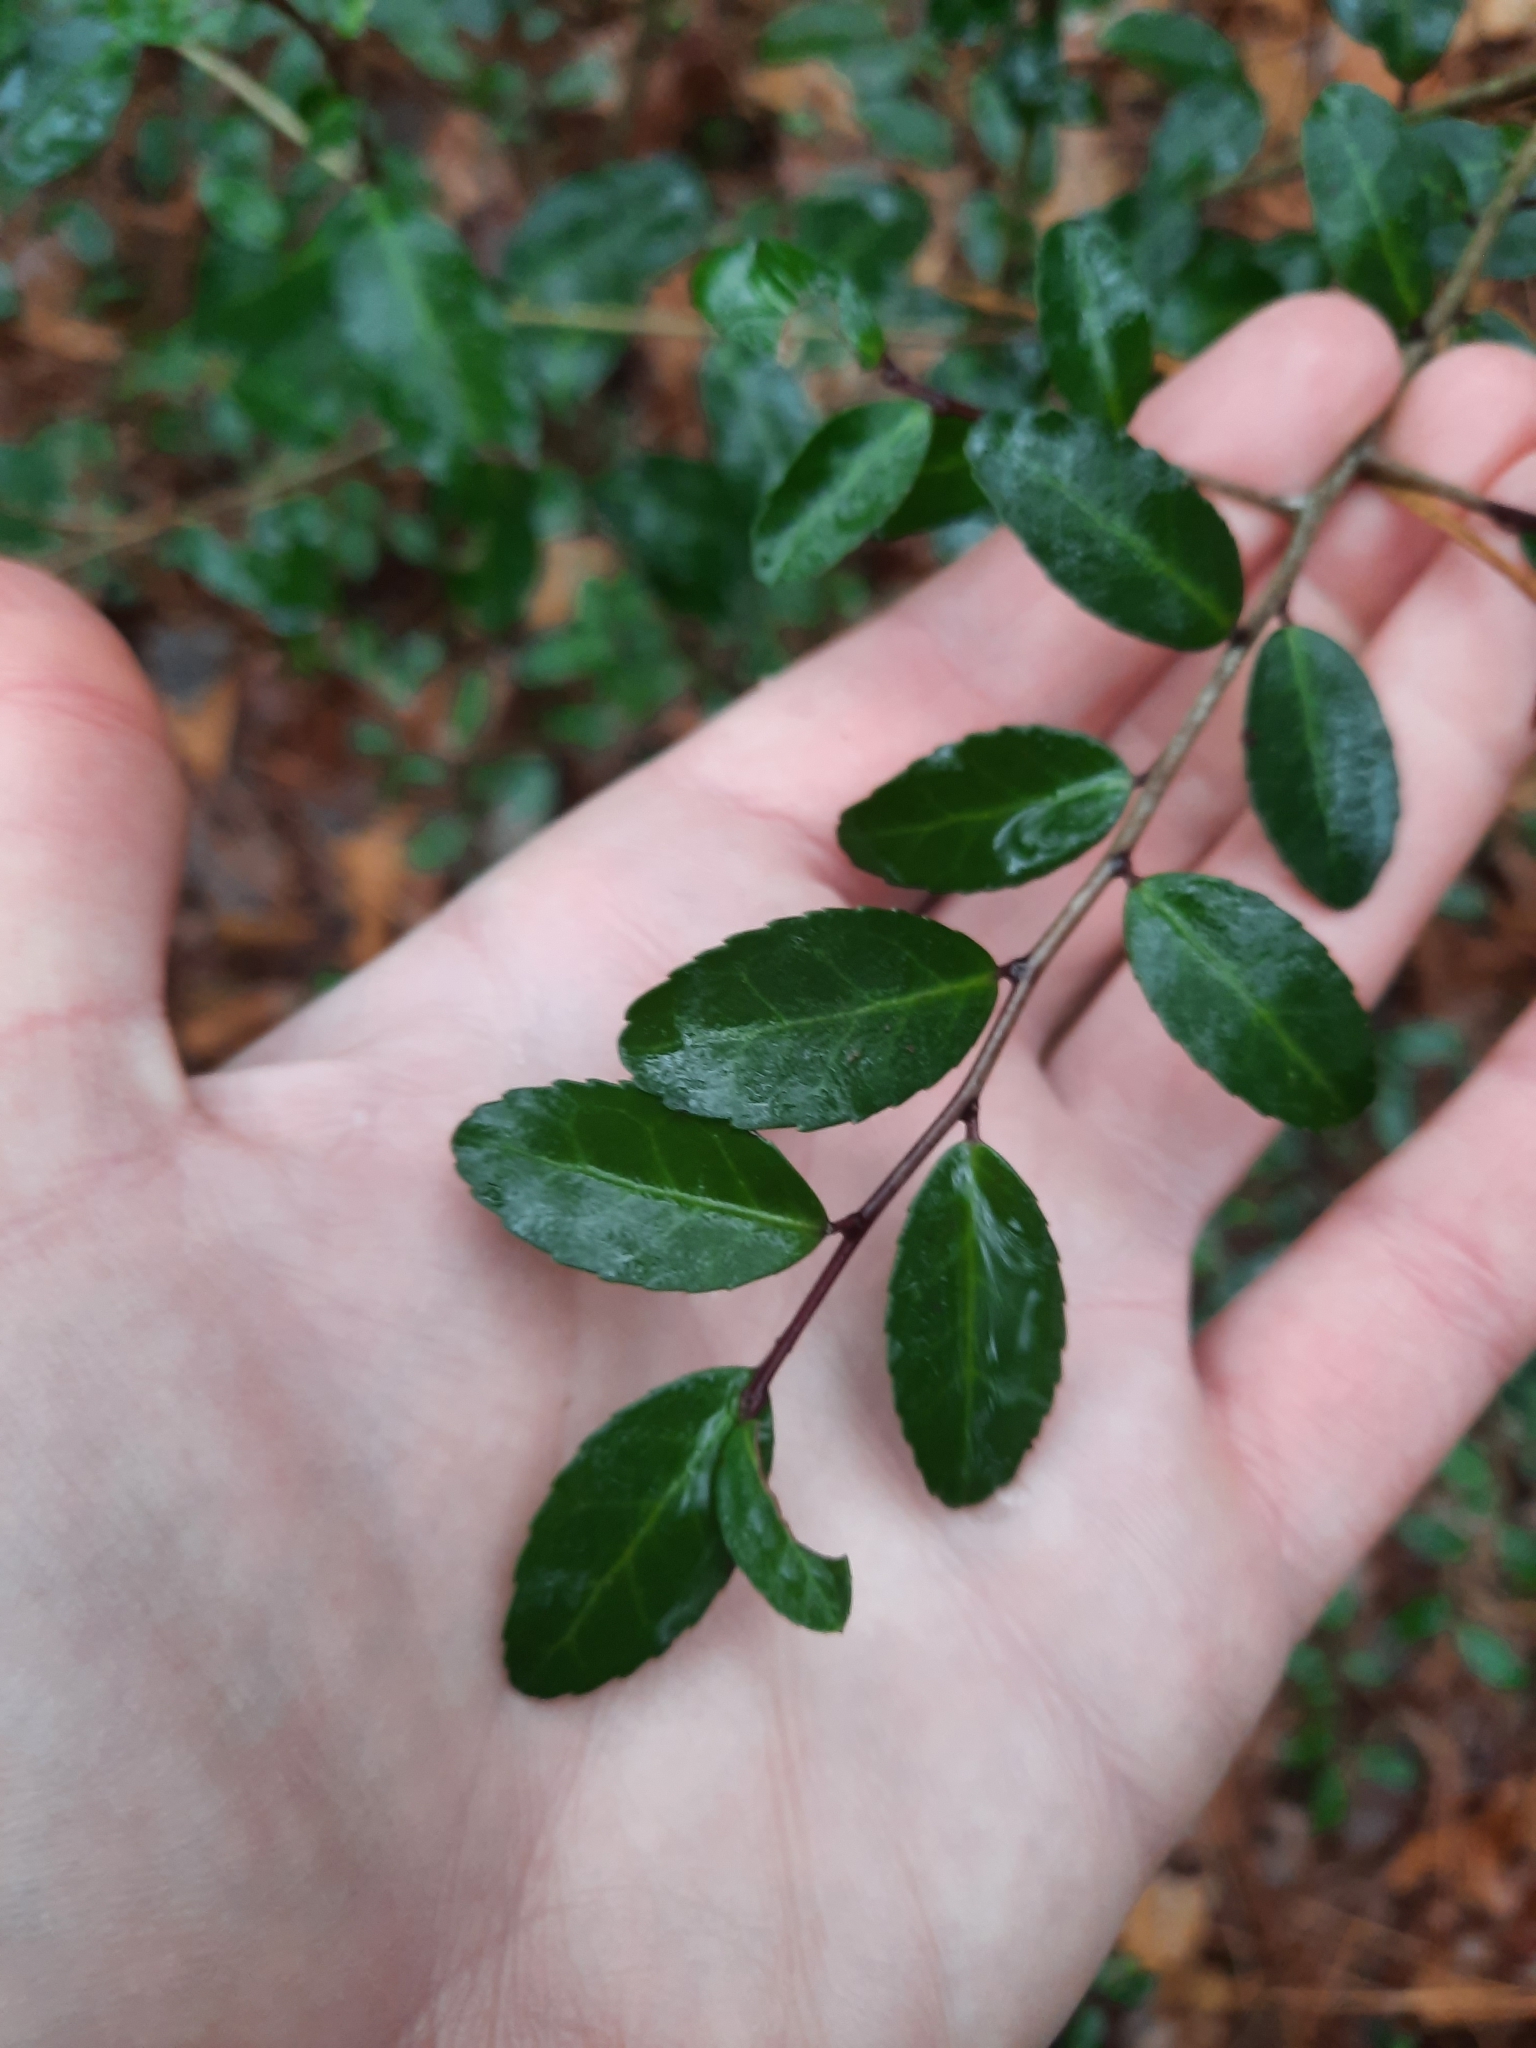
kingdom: Plantae
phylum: Tracheophyta
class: Magnoliopsida
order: Aquifoliales
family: Aquifoliaceae
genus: Ilex
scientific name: Ilex vomitoria
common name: Yaupon holly
